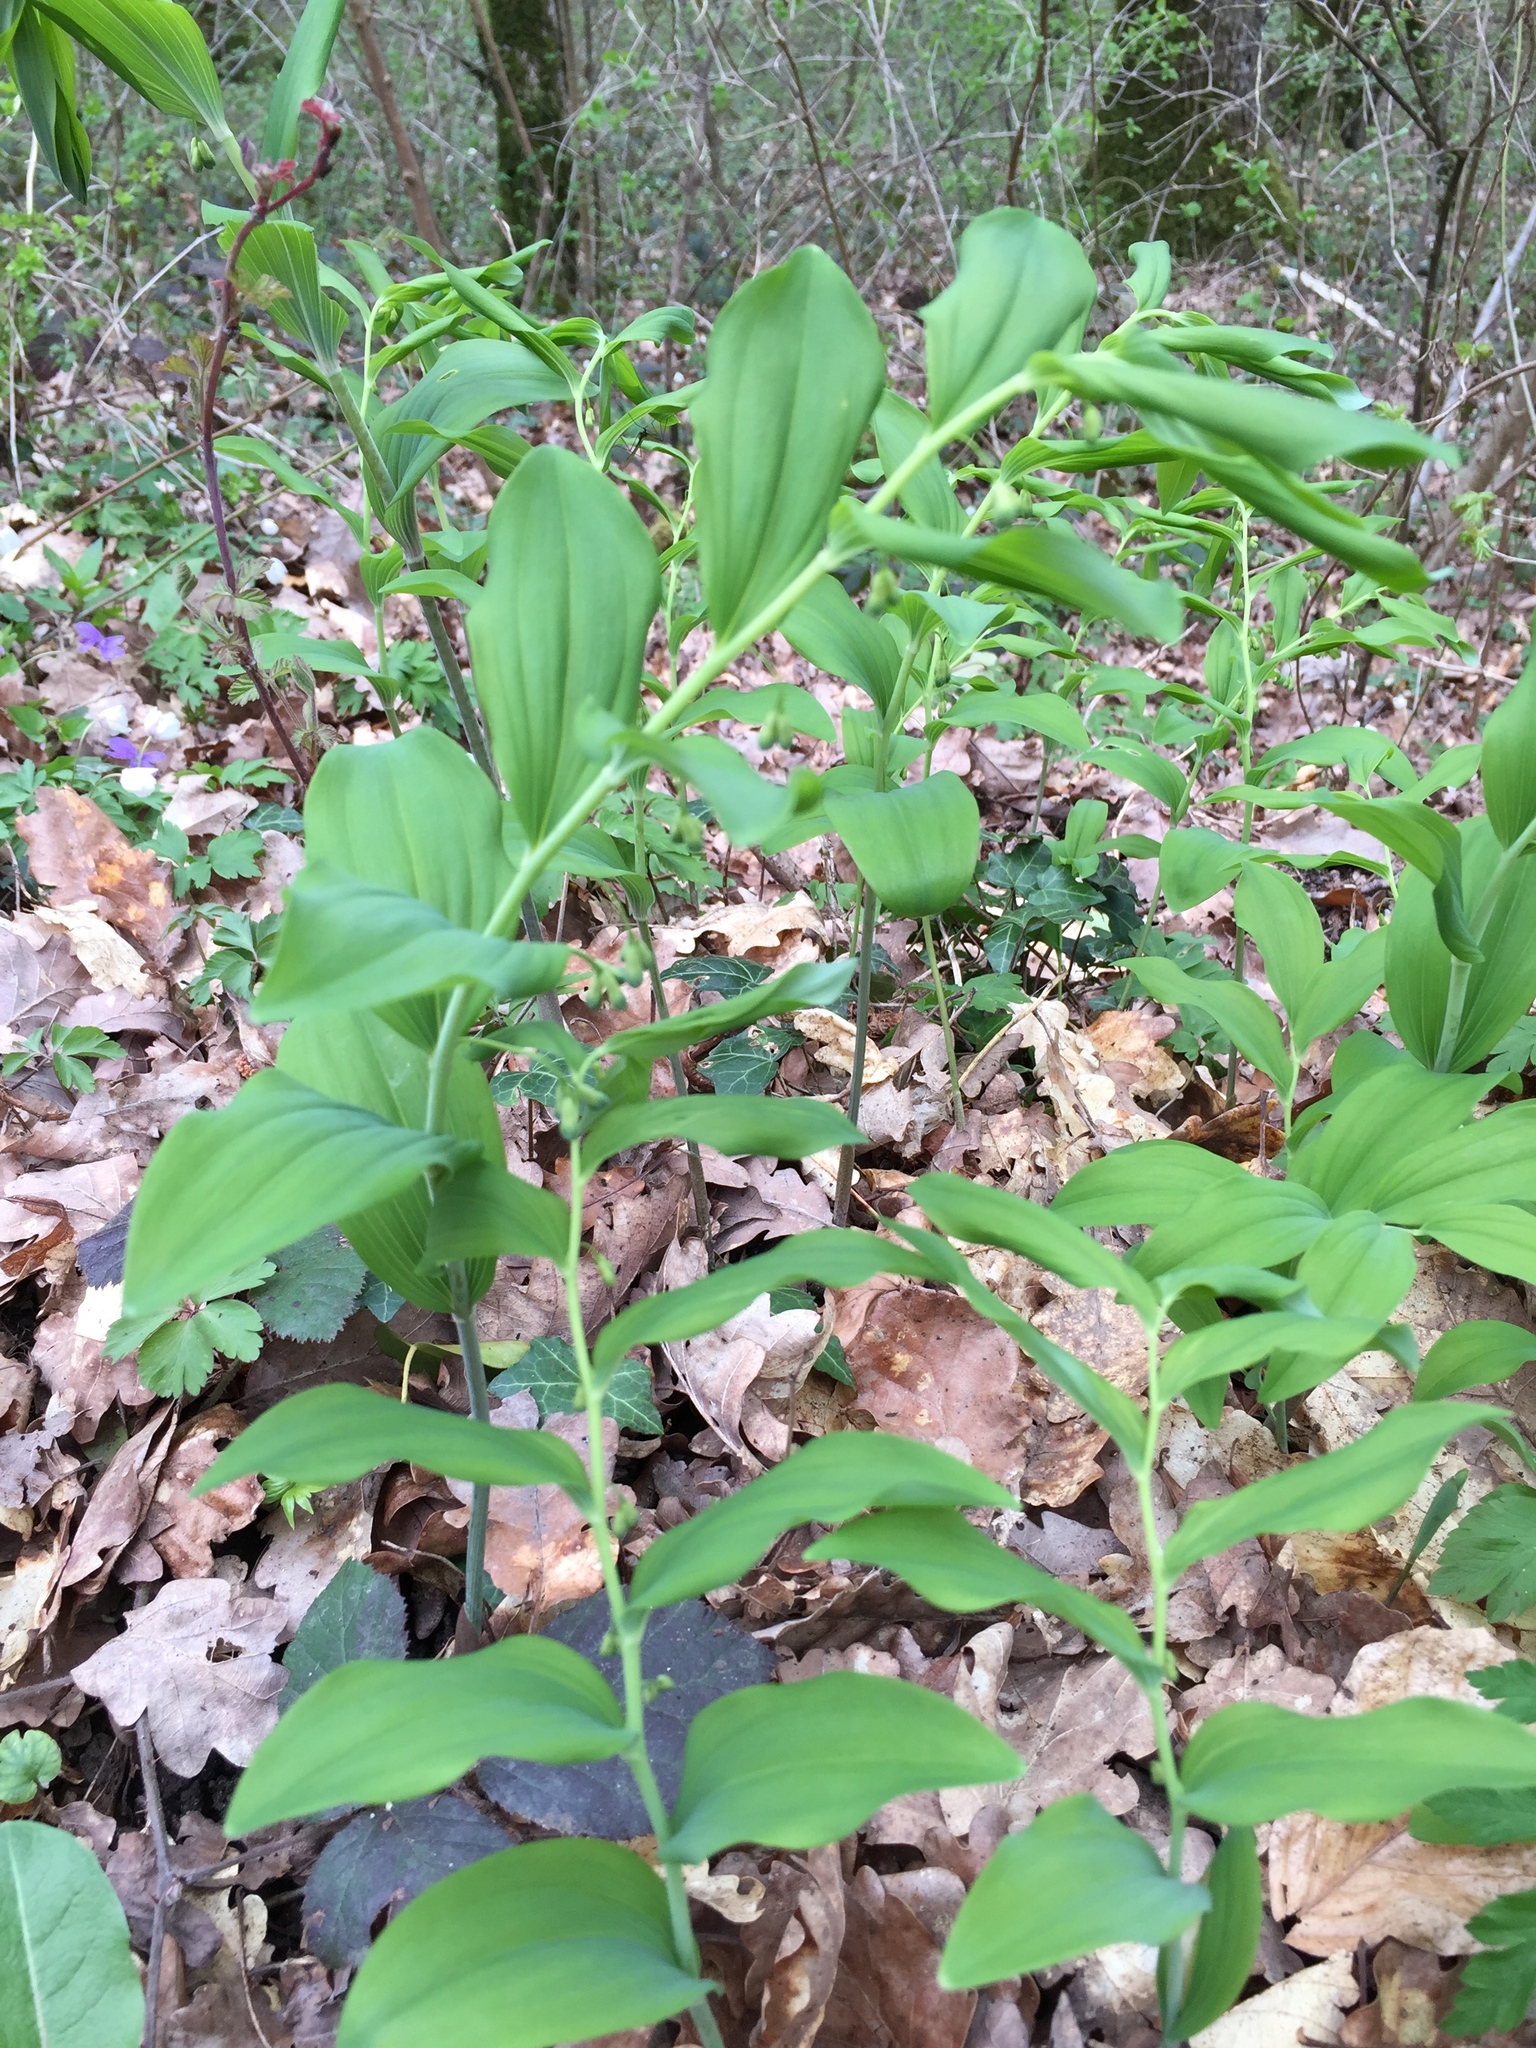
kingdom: Plantae
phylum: Tracheophyta
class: Liliopsida
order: Asparagales
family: Asparagaceae
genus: Polygonatum
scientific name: Polygonatum multiflorum
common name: Solomon's-seal
